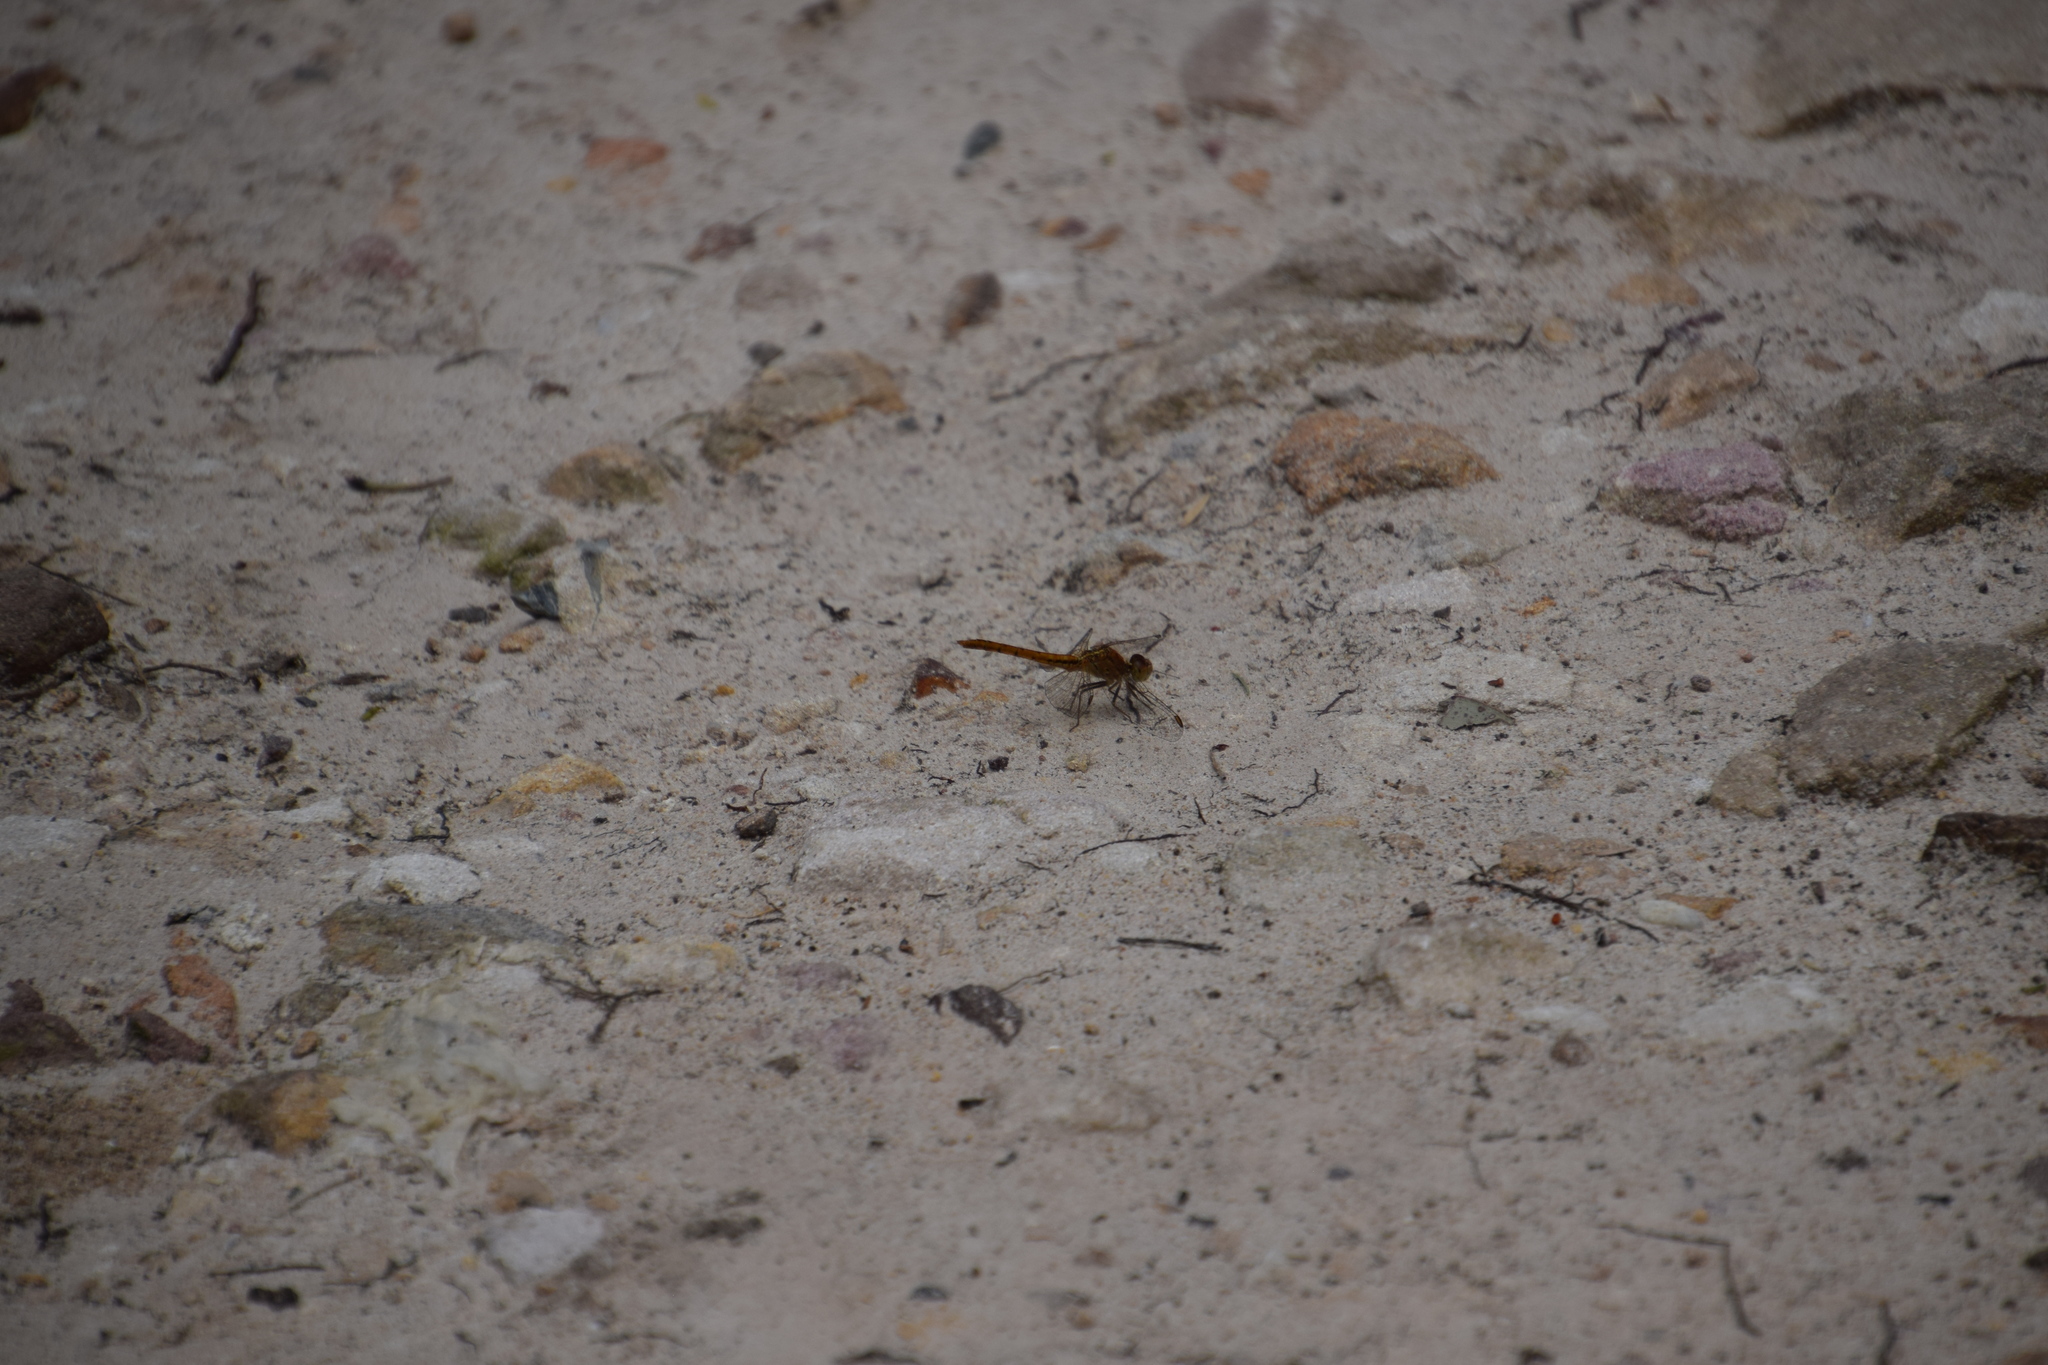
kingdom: Animalia
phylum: Arthropoda
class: Insecta
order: Odonata
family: Libellulidae
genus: Diplacodes
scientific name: Diplacodes haematodes
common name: Scarlet percher
